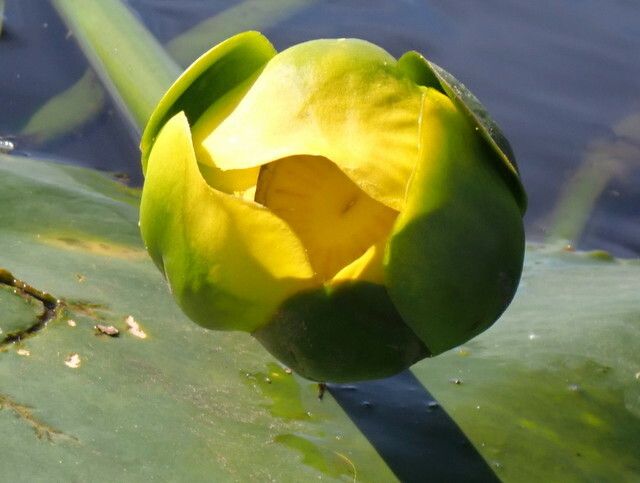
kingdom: Plantae
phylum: Tracheophyta
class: Magnoliopsida
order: Nymphaeales
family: Nymphaeaceae
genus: Nuphar
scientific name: Nuphar advena
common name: Spatter-dock
